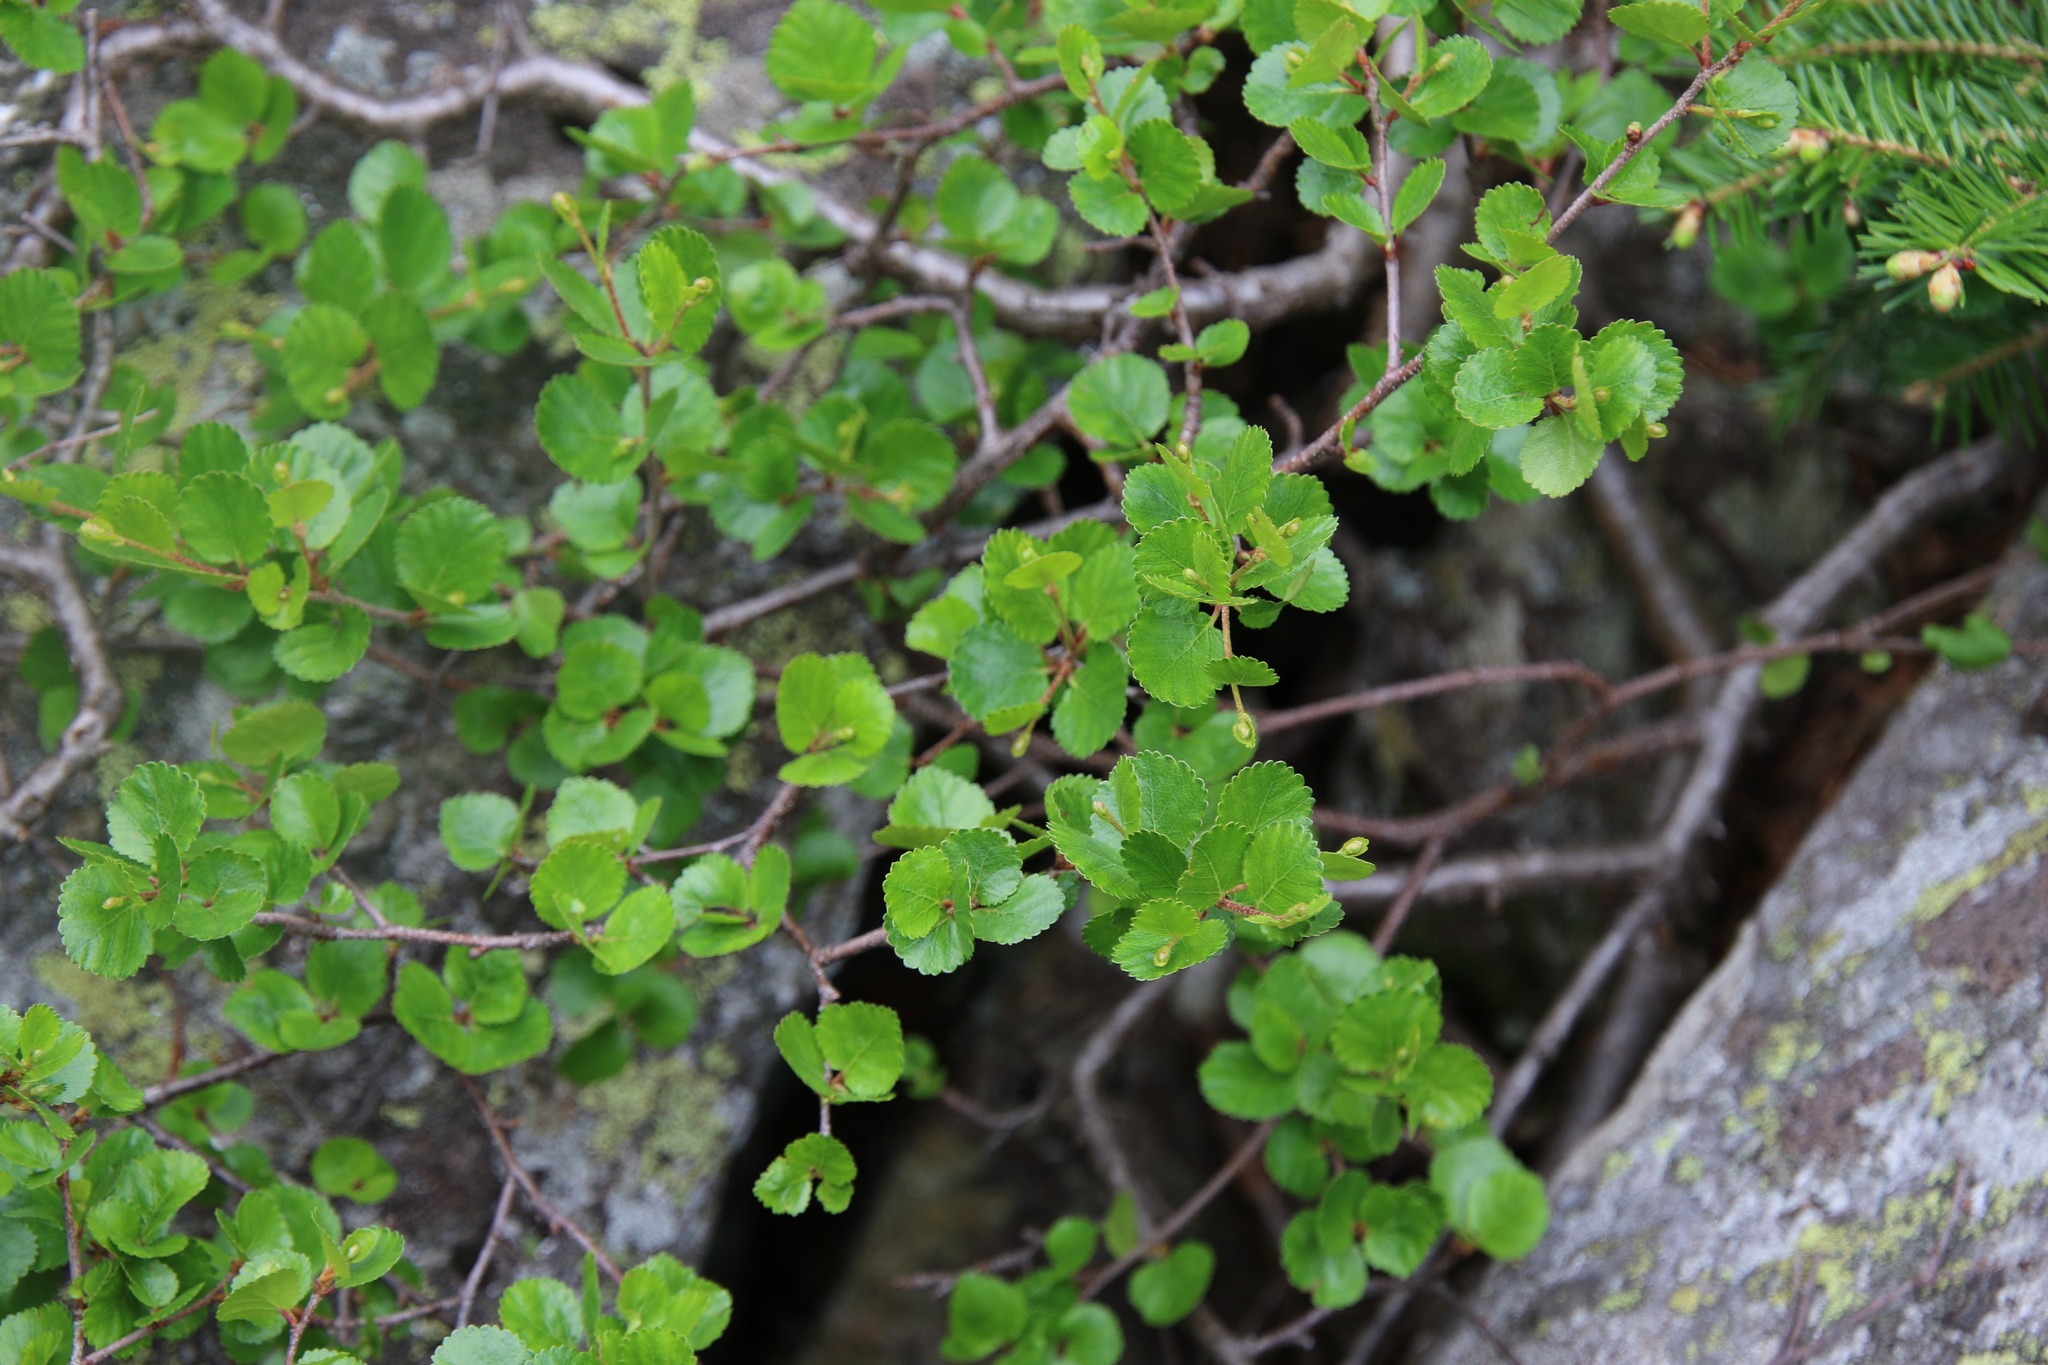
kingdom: Plantae
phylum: Tracheophyta
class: Magnoliopsida
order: Fagales
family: Betulaceae
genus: Betula
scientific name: Betula glandulosa
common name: Dwarf birch
